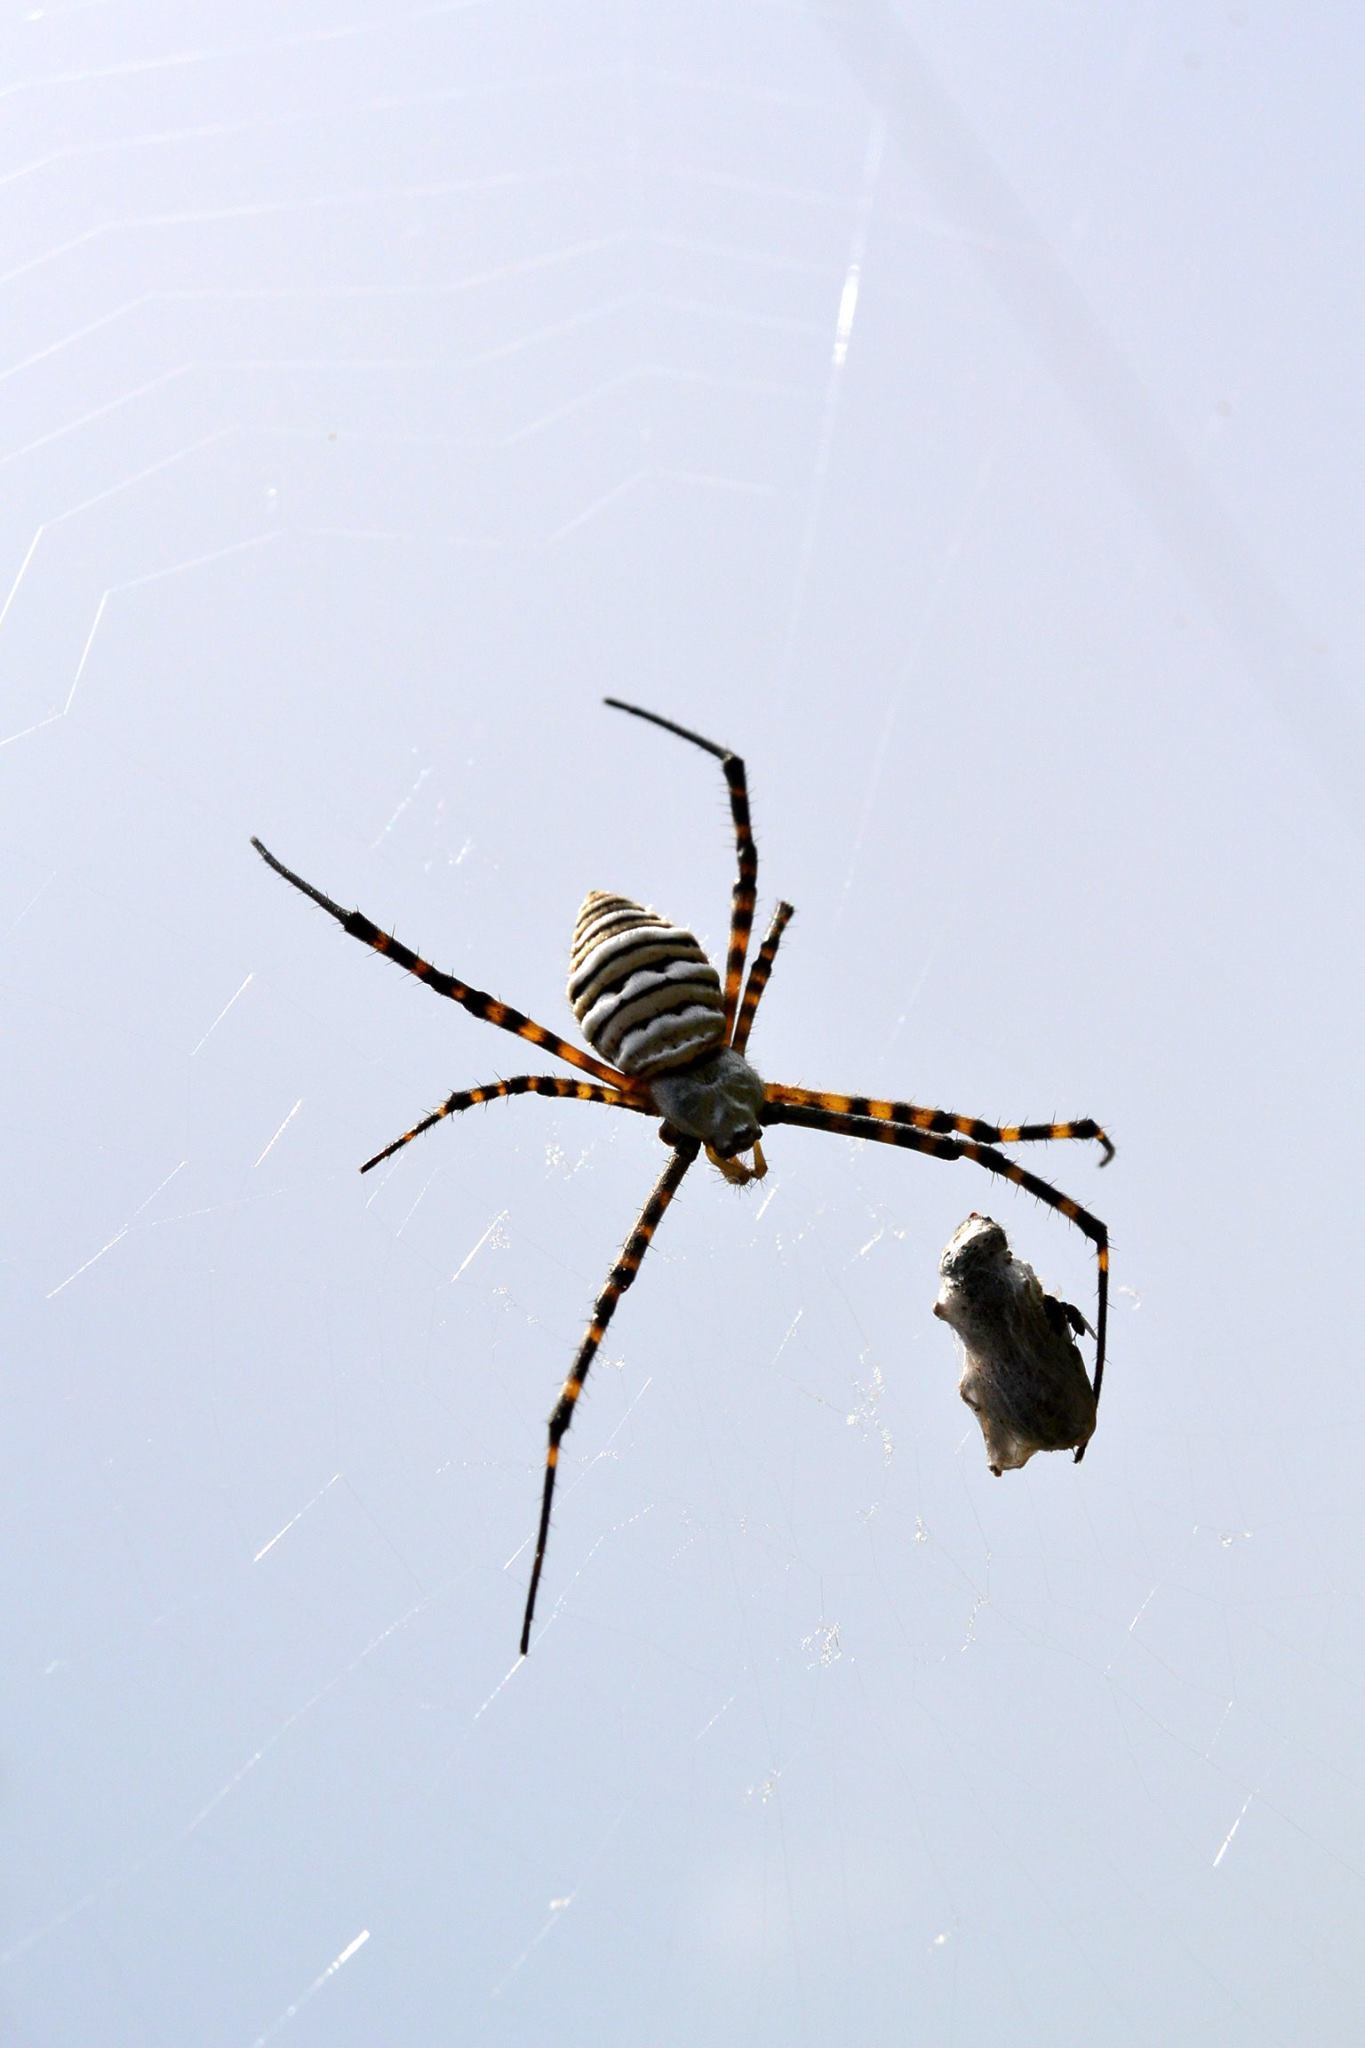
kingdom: Animalia
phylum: Arthropoda
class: Arachnida
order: Araneae
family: Araneidae
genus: Argiope
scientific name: Argiope trifasciata
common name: Banded garden spider
